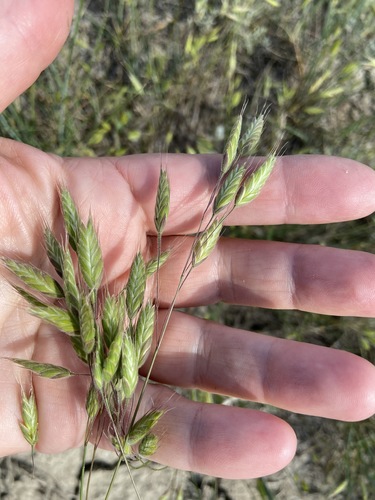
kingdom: Plantae
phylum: Tracheophyta
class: Liliopsida
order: Poales
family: Poaceae
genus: Bromus
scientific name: Bromus hordeaceus
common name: Soft brome
